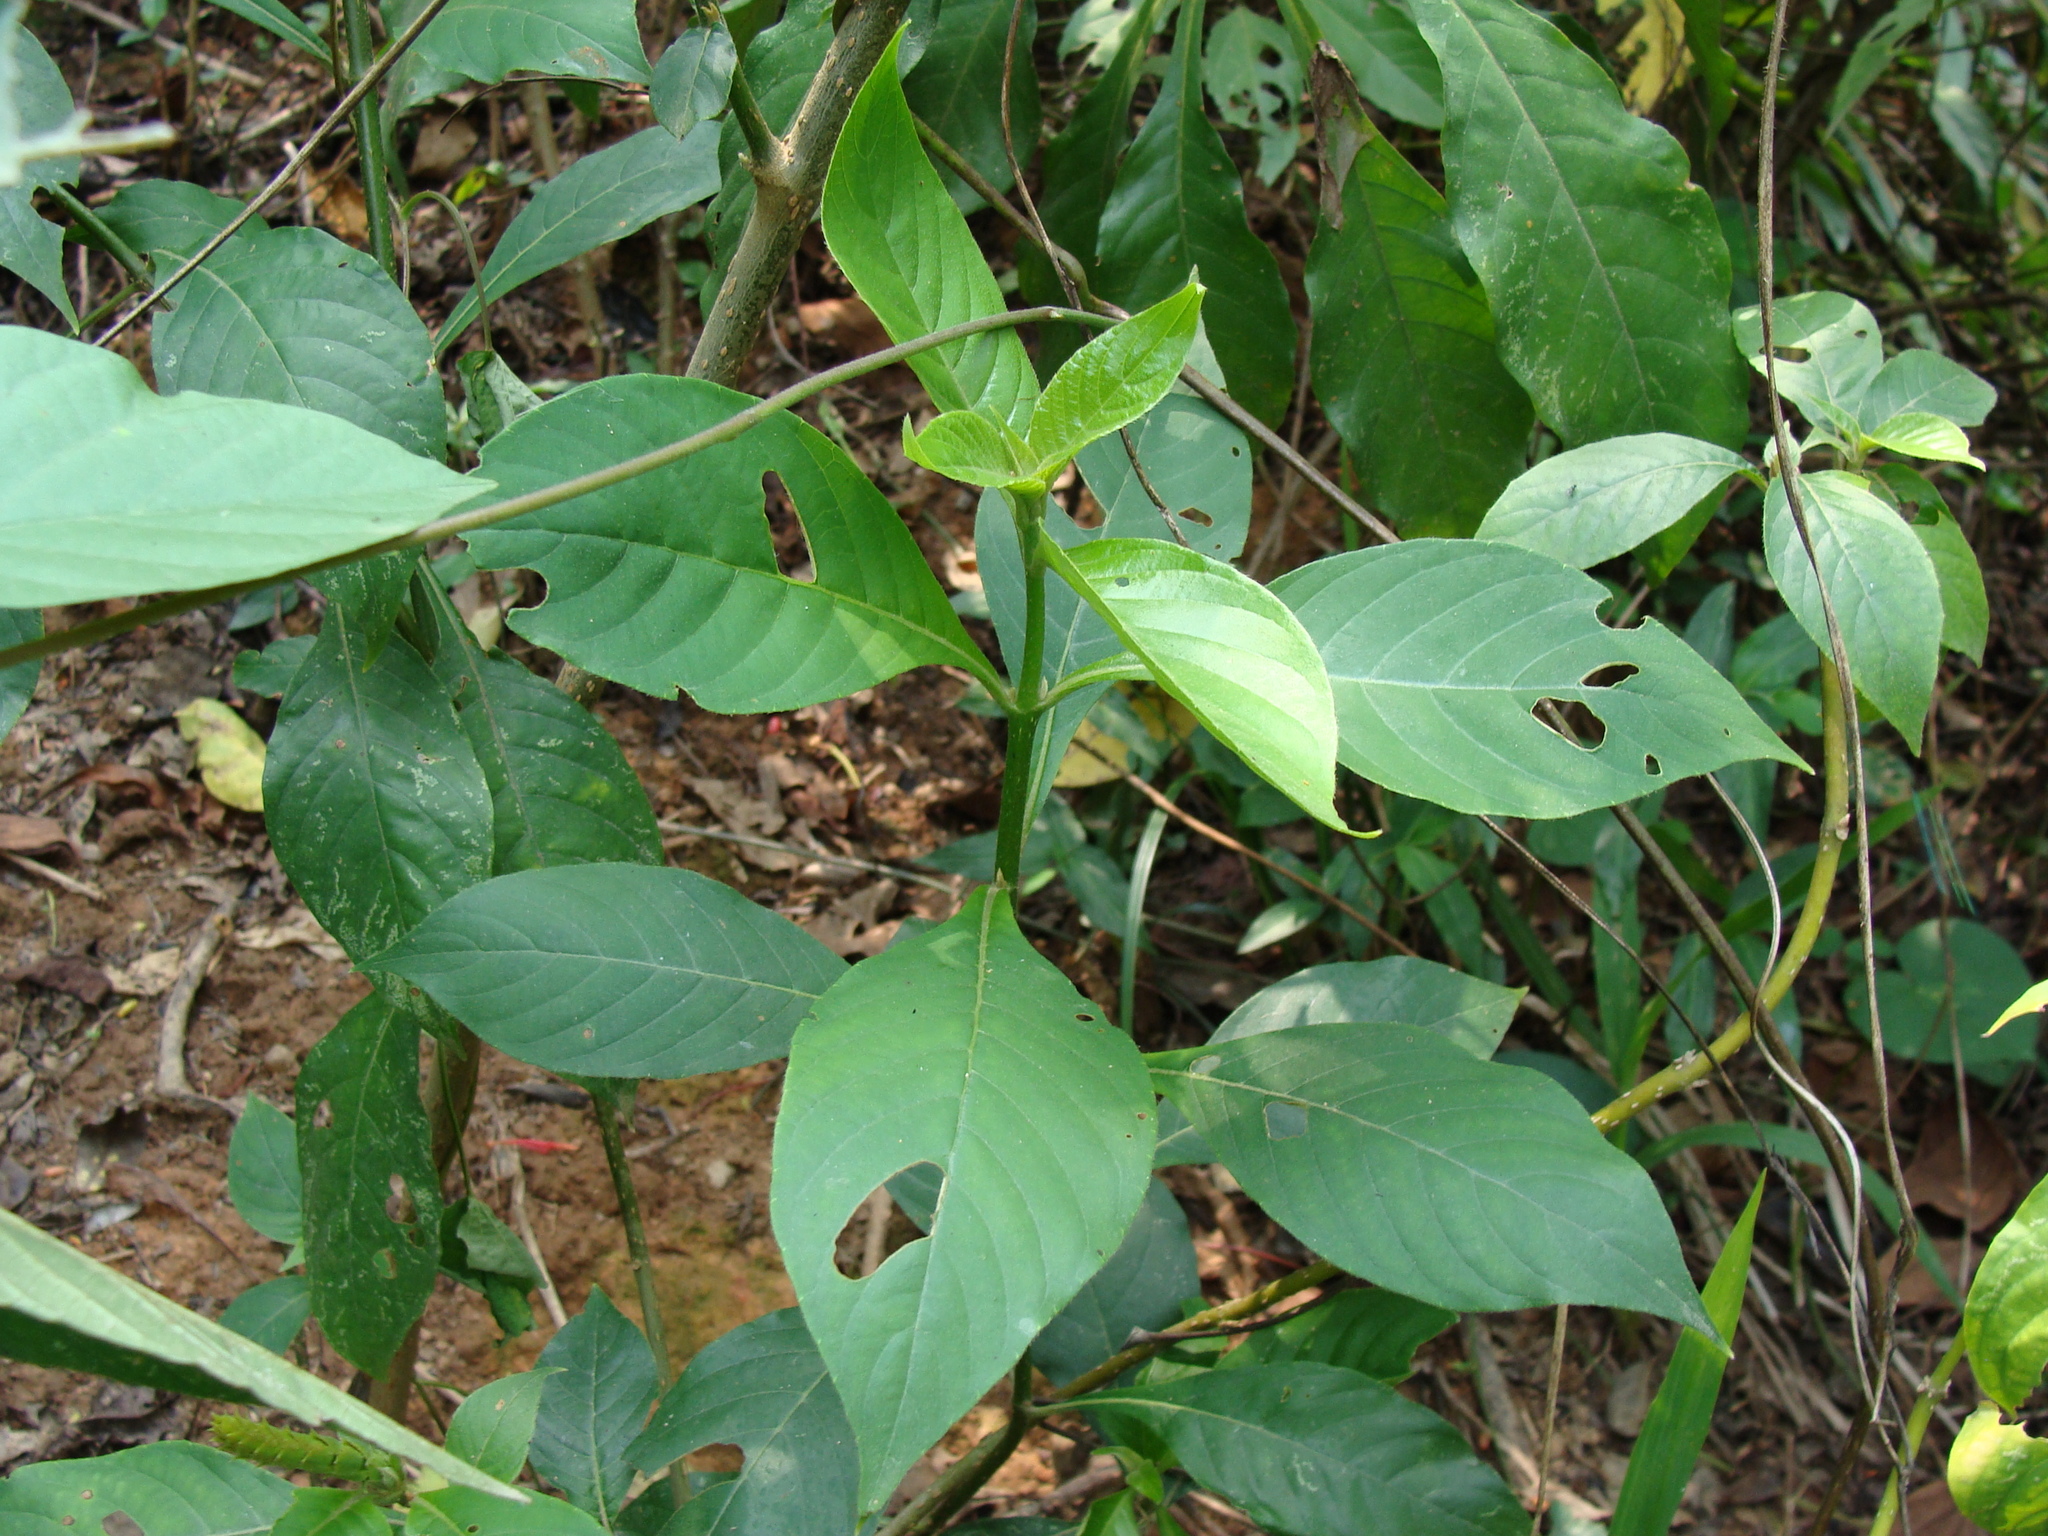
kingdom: Plantae
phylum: Tracheophyta
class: Magnoliopsida
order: Lamiales
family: Acanthaceae
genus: Aphelandra
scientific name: Aphelandra scabra
